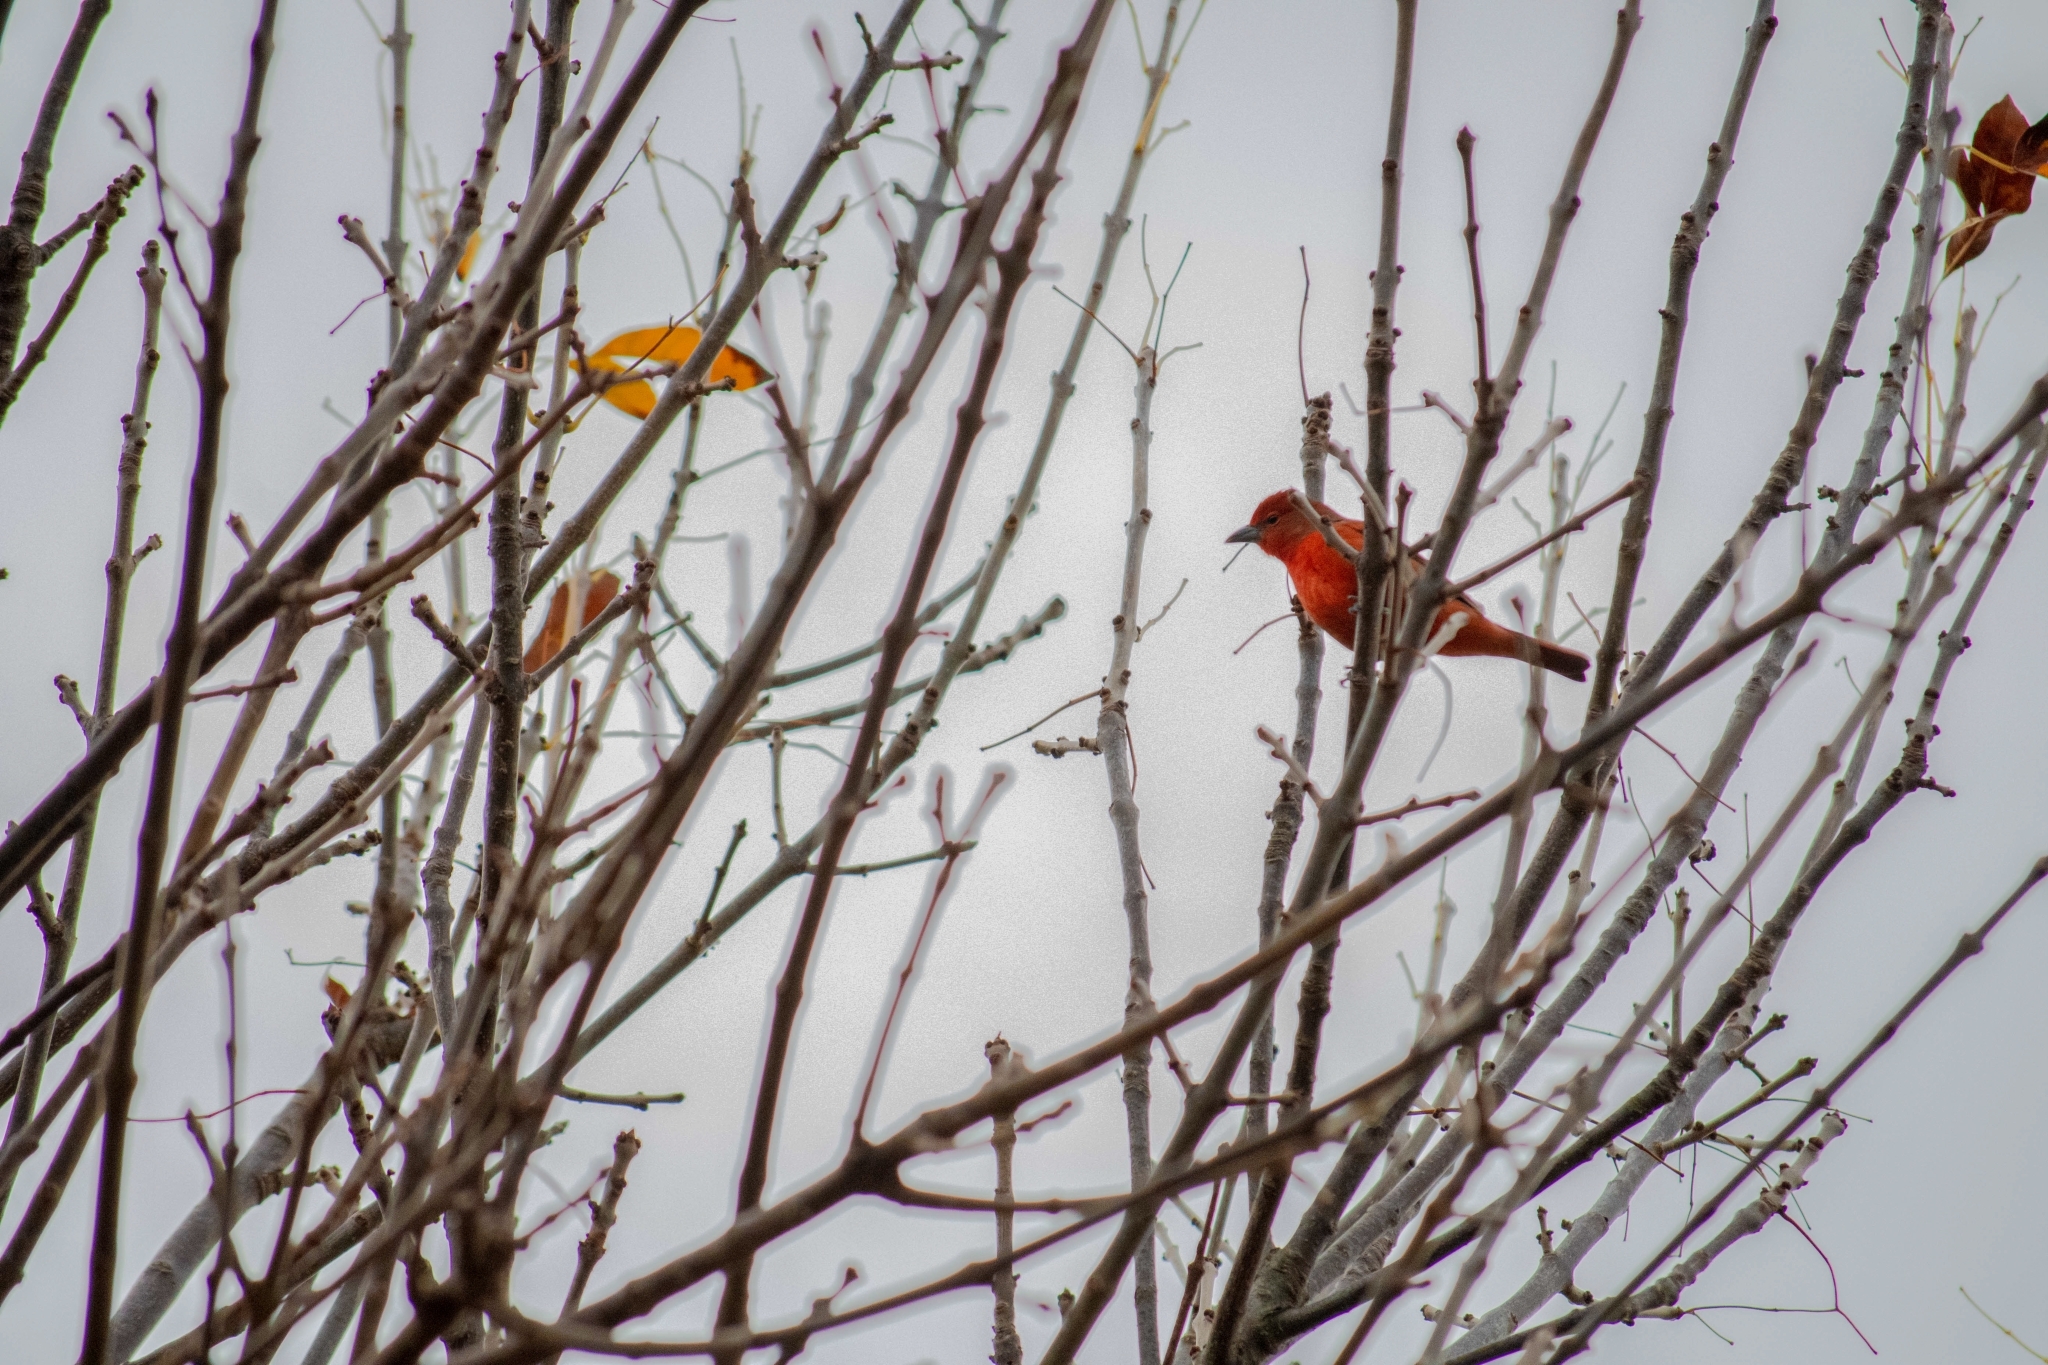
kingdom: Animalia
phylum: Chordata
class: Aves
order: Passeriformes
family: Cardinalidae
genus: Piranga
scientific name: Piranga flava
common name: Red tanager
